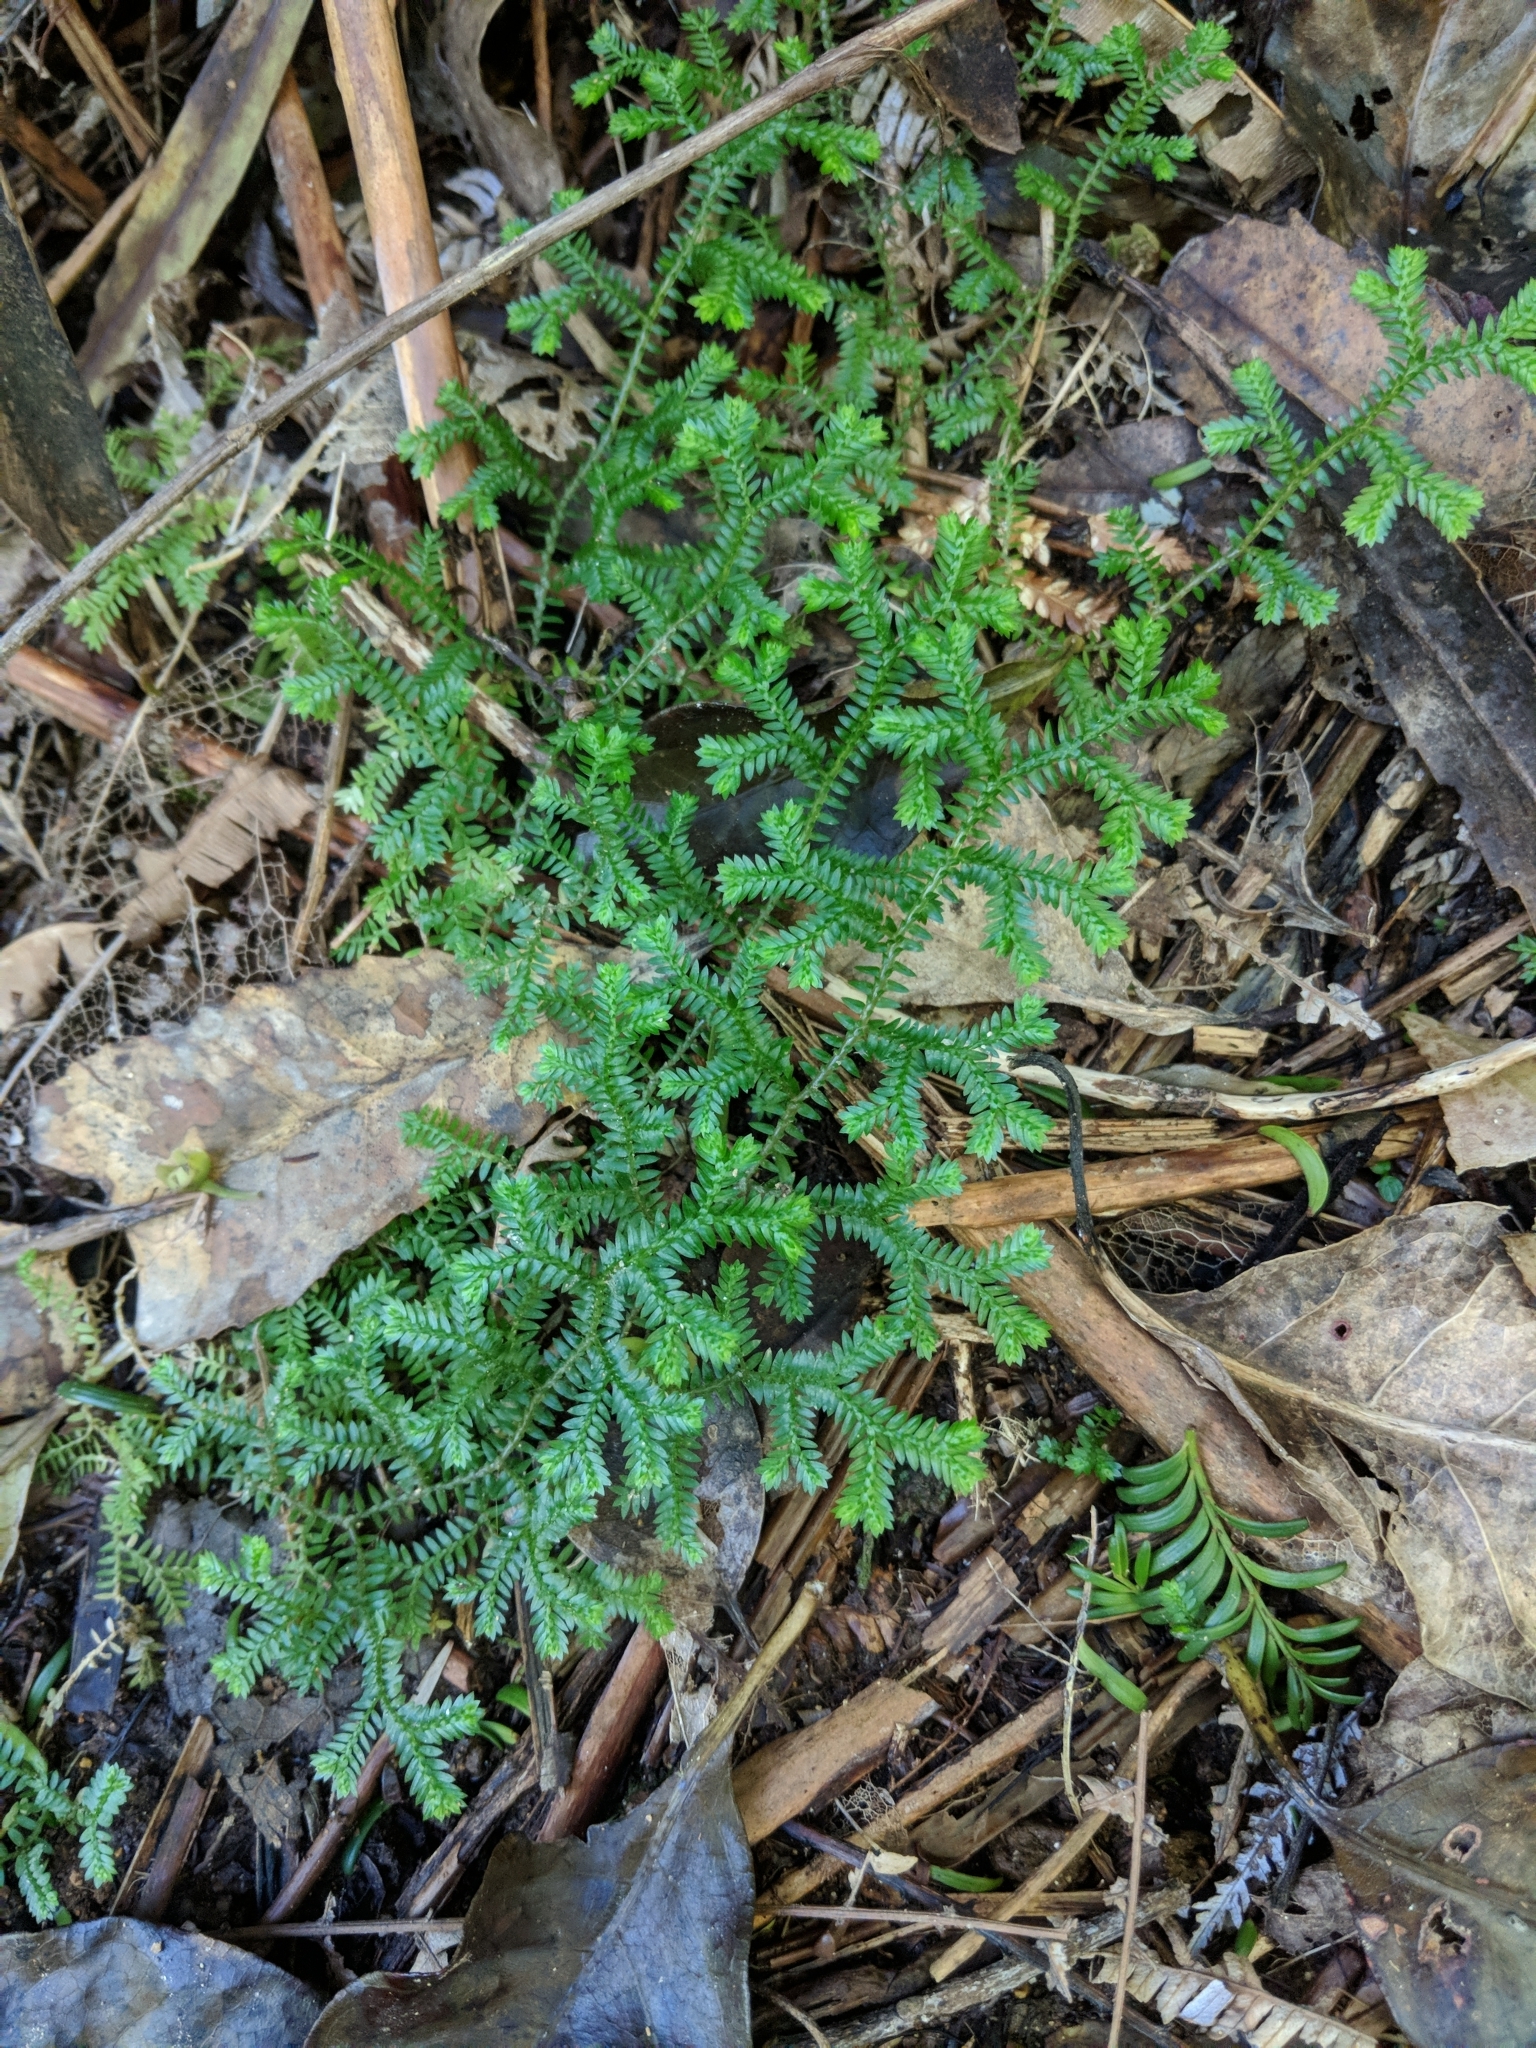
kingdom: Plantae
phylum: Tracheophyta
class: Lycopodiopsida
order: Selaginellales
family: Selaginellaceae
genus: Selaginella
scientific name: Selaginella kraussiana
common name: Krauss' spikemoss
